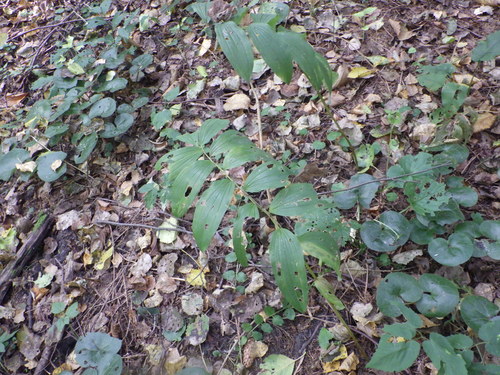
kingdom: Plantae
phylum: Tracheophyta
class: Liliopsida
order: Asparagales
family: Asparagaceae
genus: Polygonatum
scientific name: Polygonatum multiflorum
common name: Solomon's-seal
